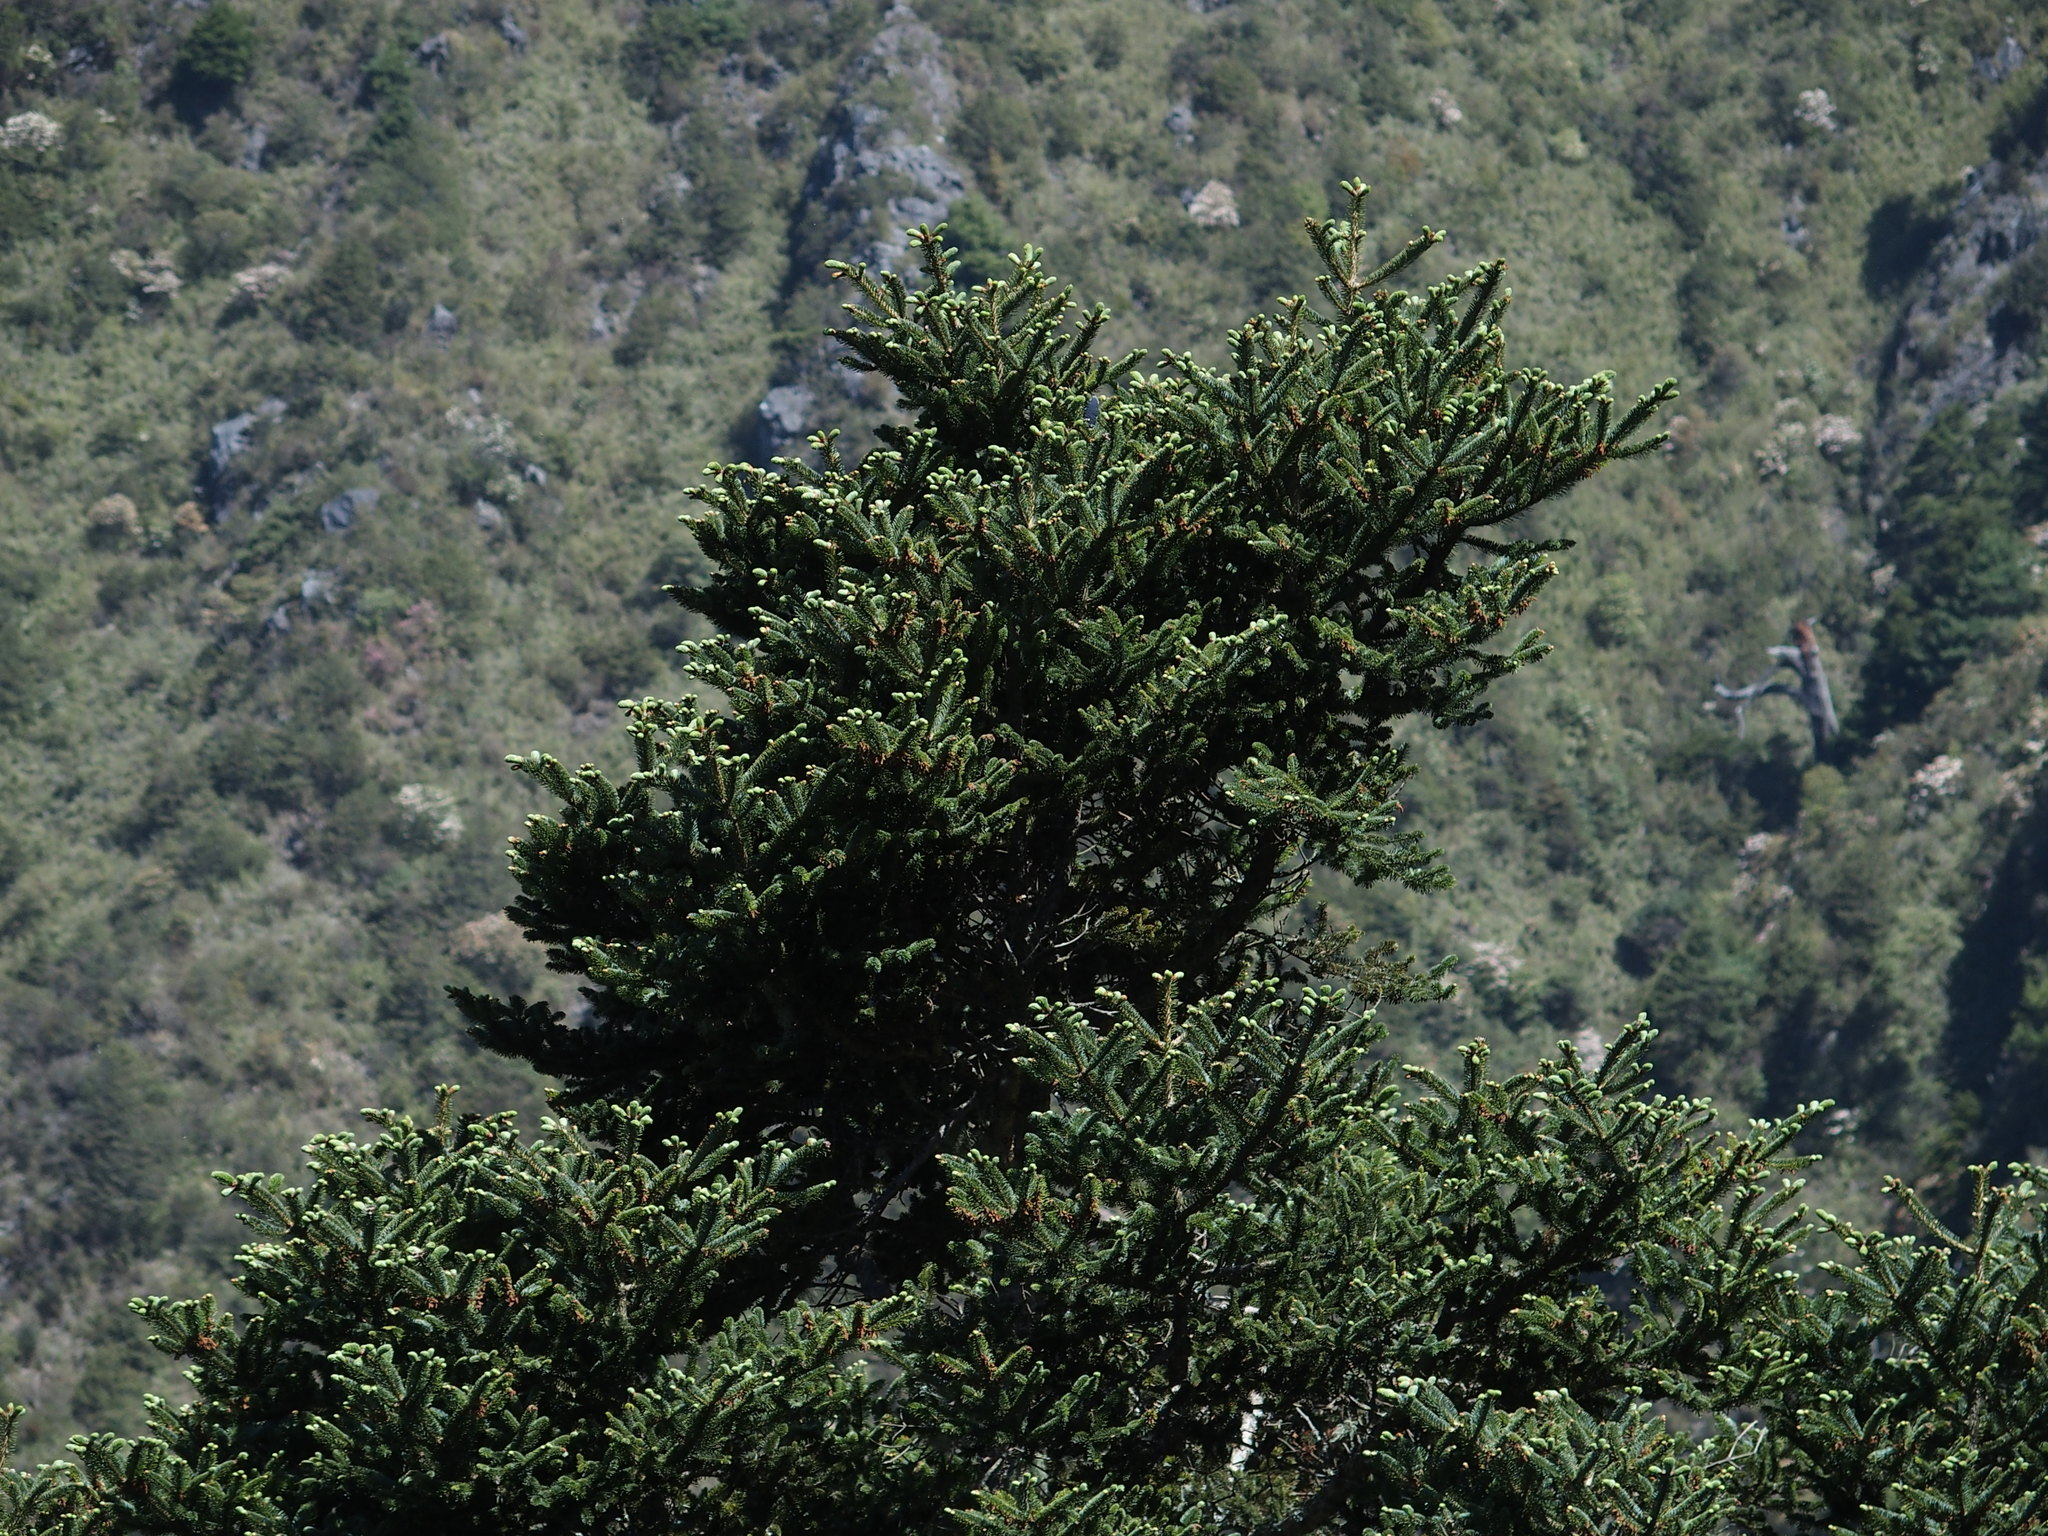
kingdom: Plantae
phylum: Tracheophyta
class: Pinopsida
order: Pinales
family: Pinaceae
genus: Abies
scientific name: Abies kawakamii
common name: Taiwan fir
